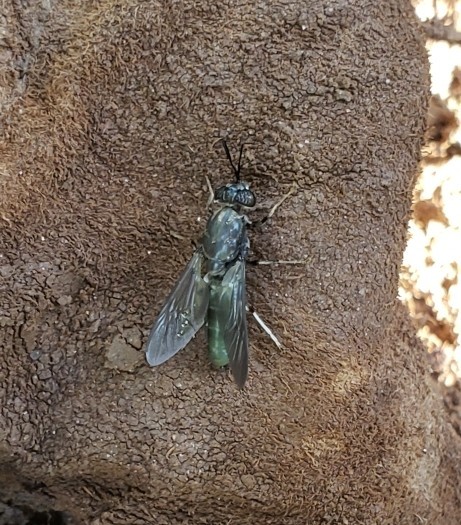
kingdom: Animalia
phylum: Arthropoda
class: Insecta
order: Diptera
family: Stratiomyidae
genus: Hermetia
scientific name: Hermetia illucens
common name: Black soldier fly
